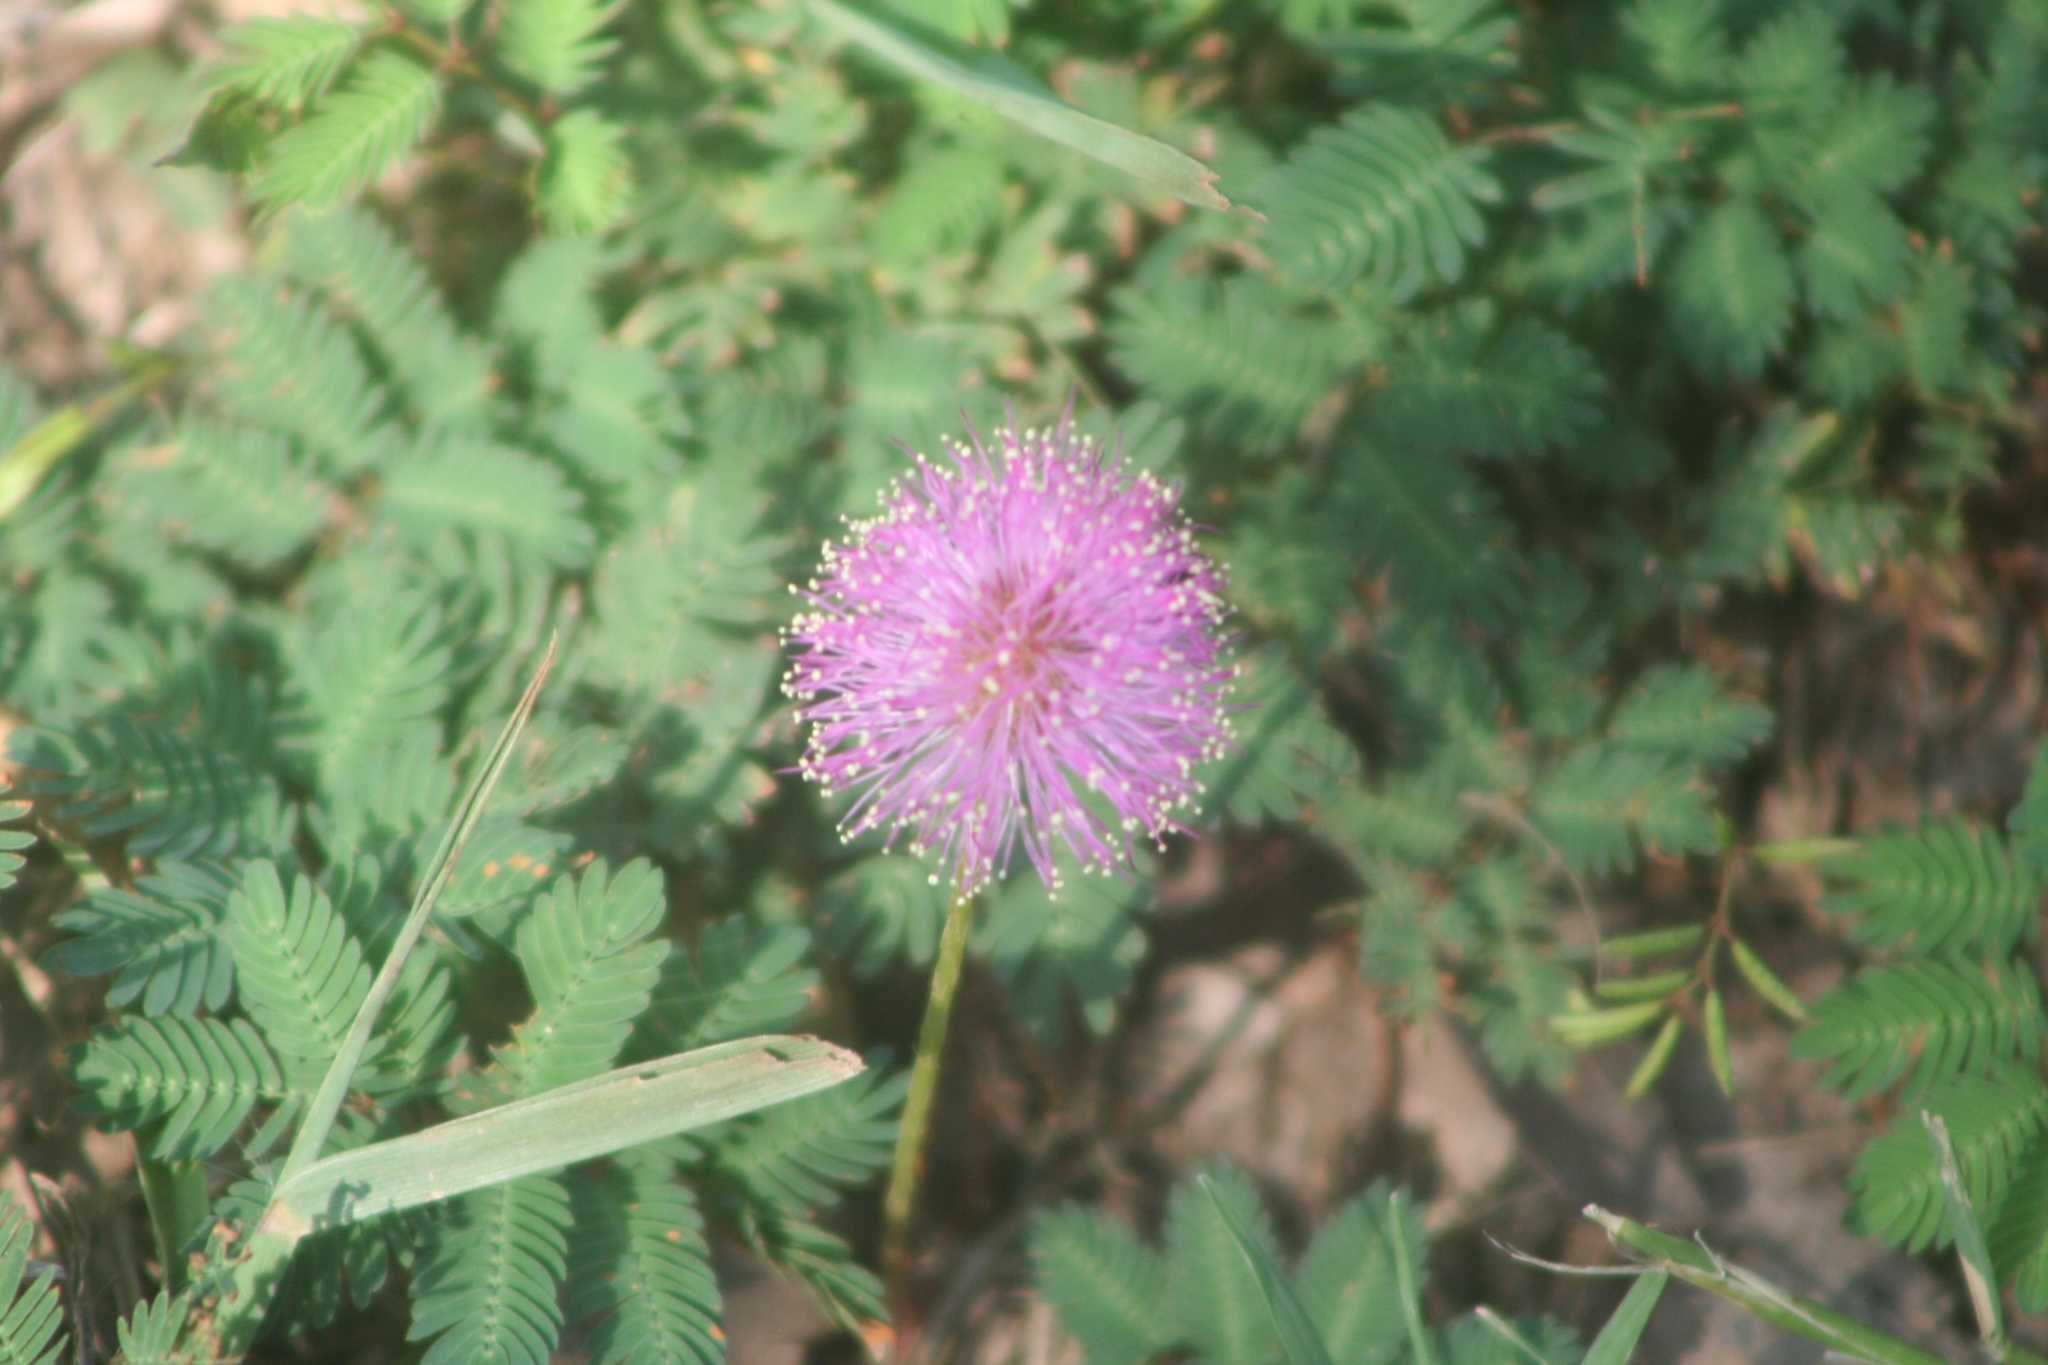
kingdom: Plantae
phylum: Tracheophyta
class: Magnoliopsida
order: Fabales
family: Fabaceae
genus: Mimosa
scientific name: Mimosa strigillosa
